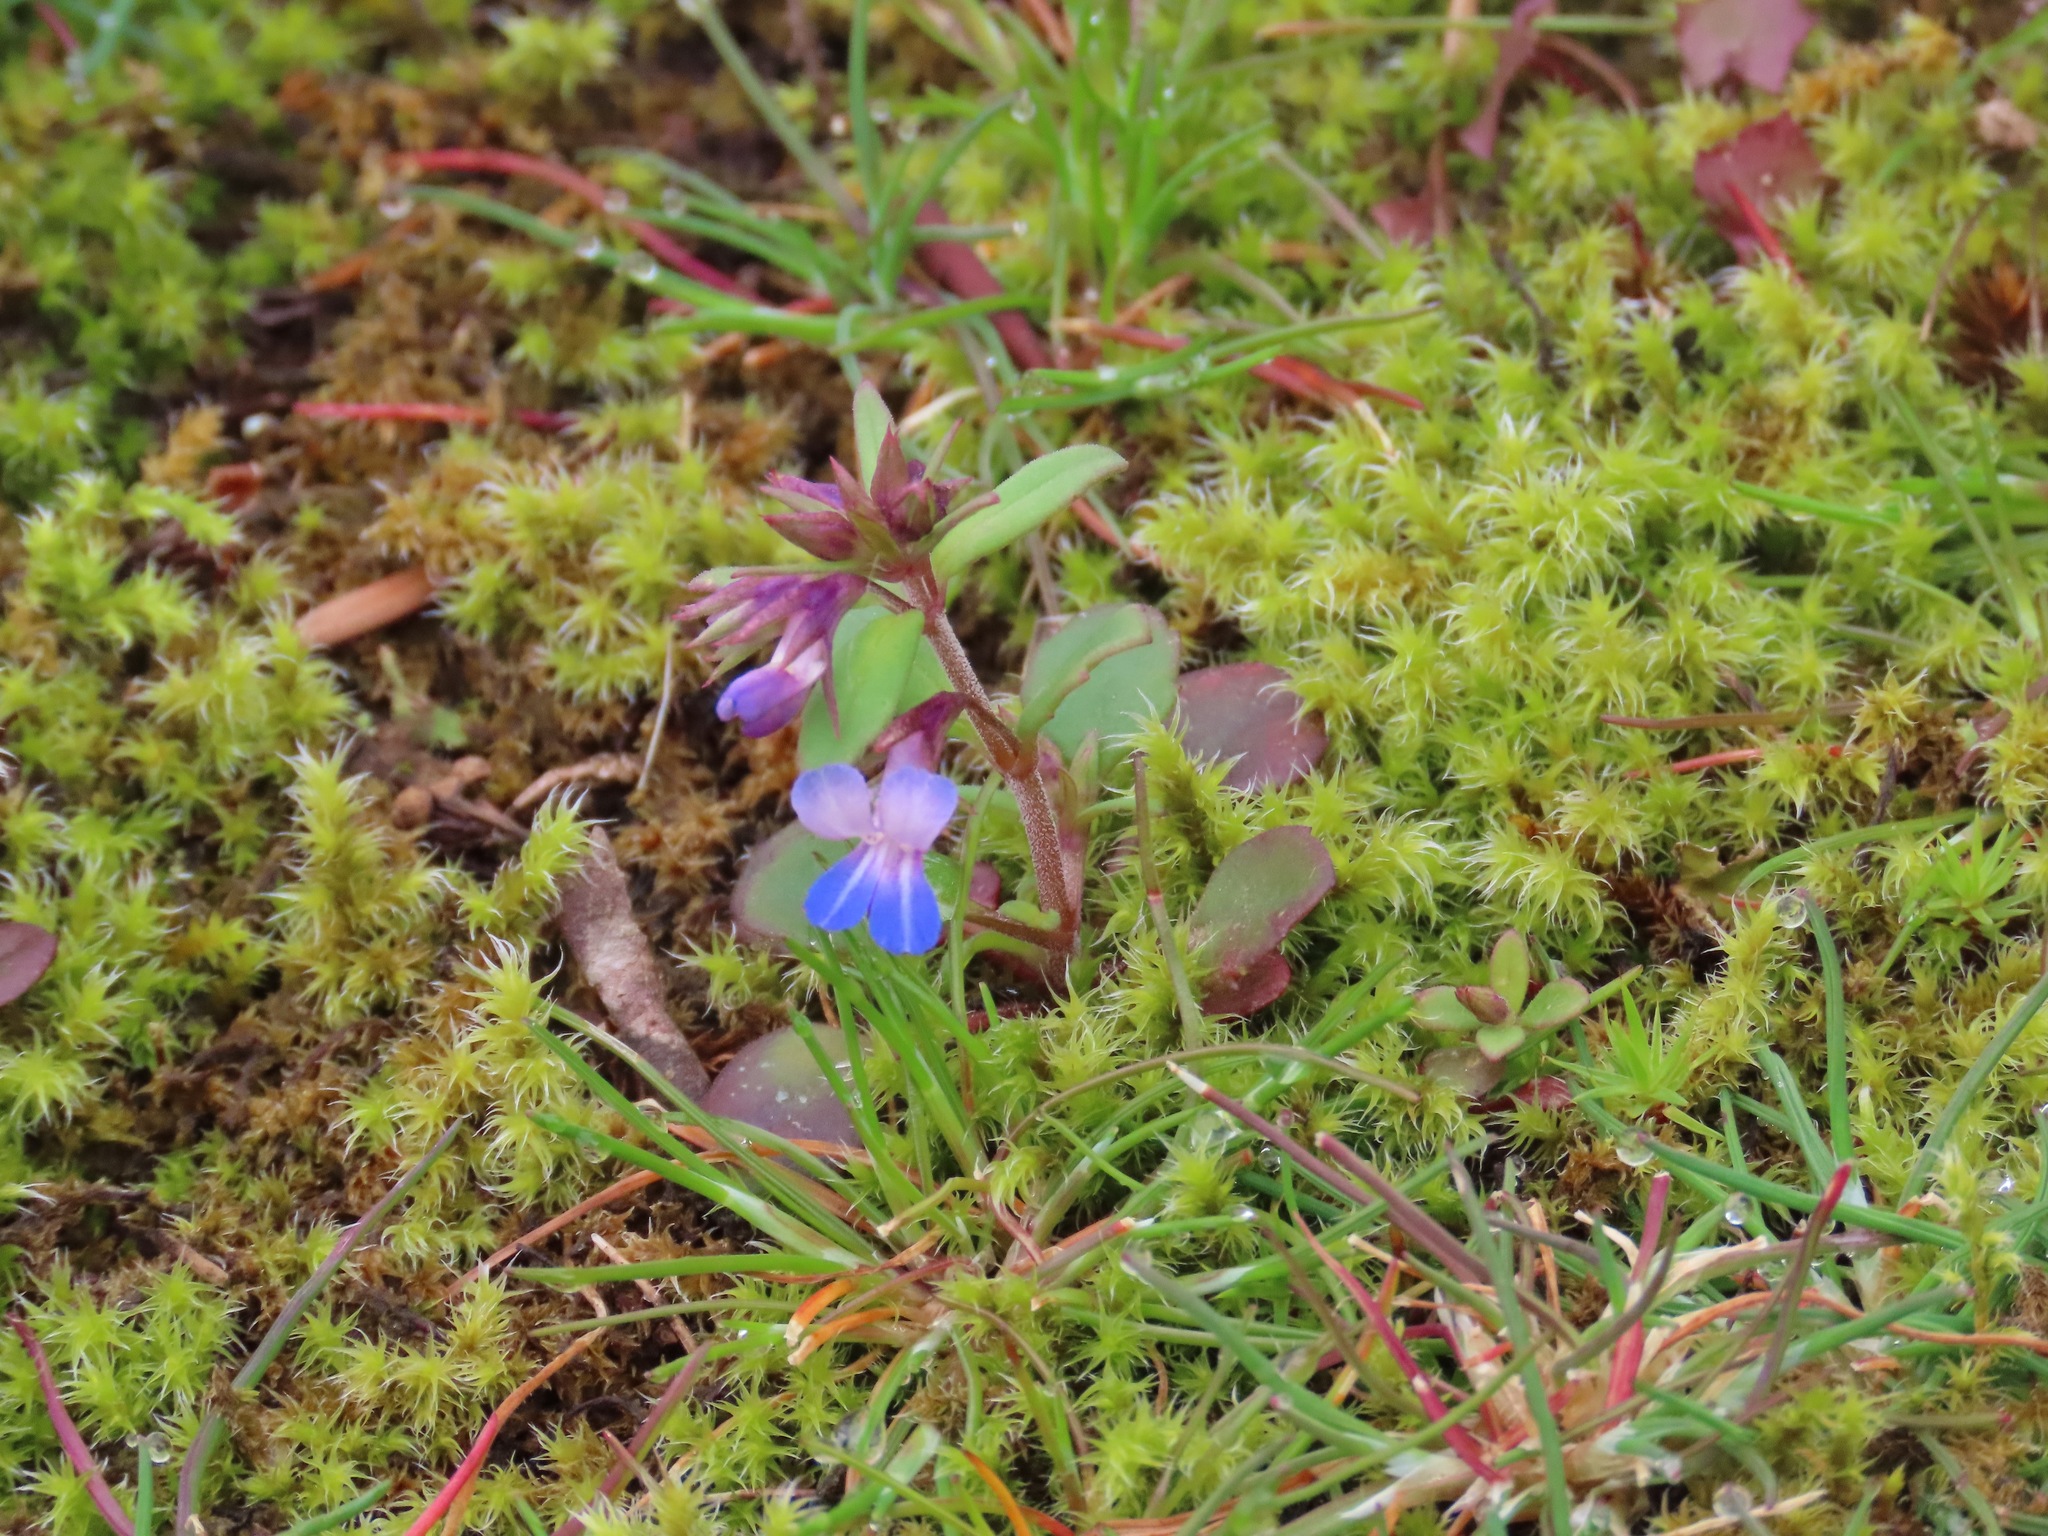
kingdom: Plantae
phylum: Tracheophyta
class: Magnoliopsida
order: Lamiales
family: Plantaginaceae
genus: Collinsia
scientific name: Collinsia parviflora
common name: Blue-lips
